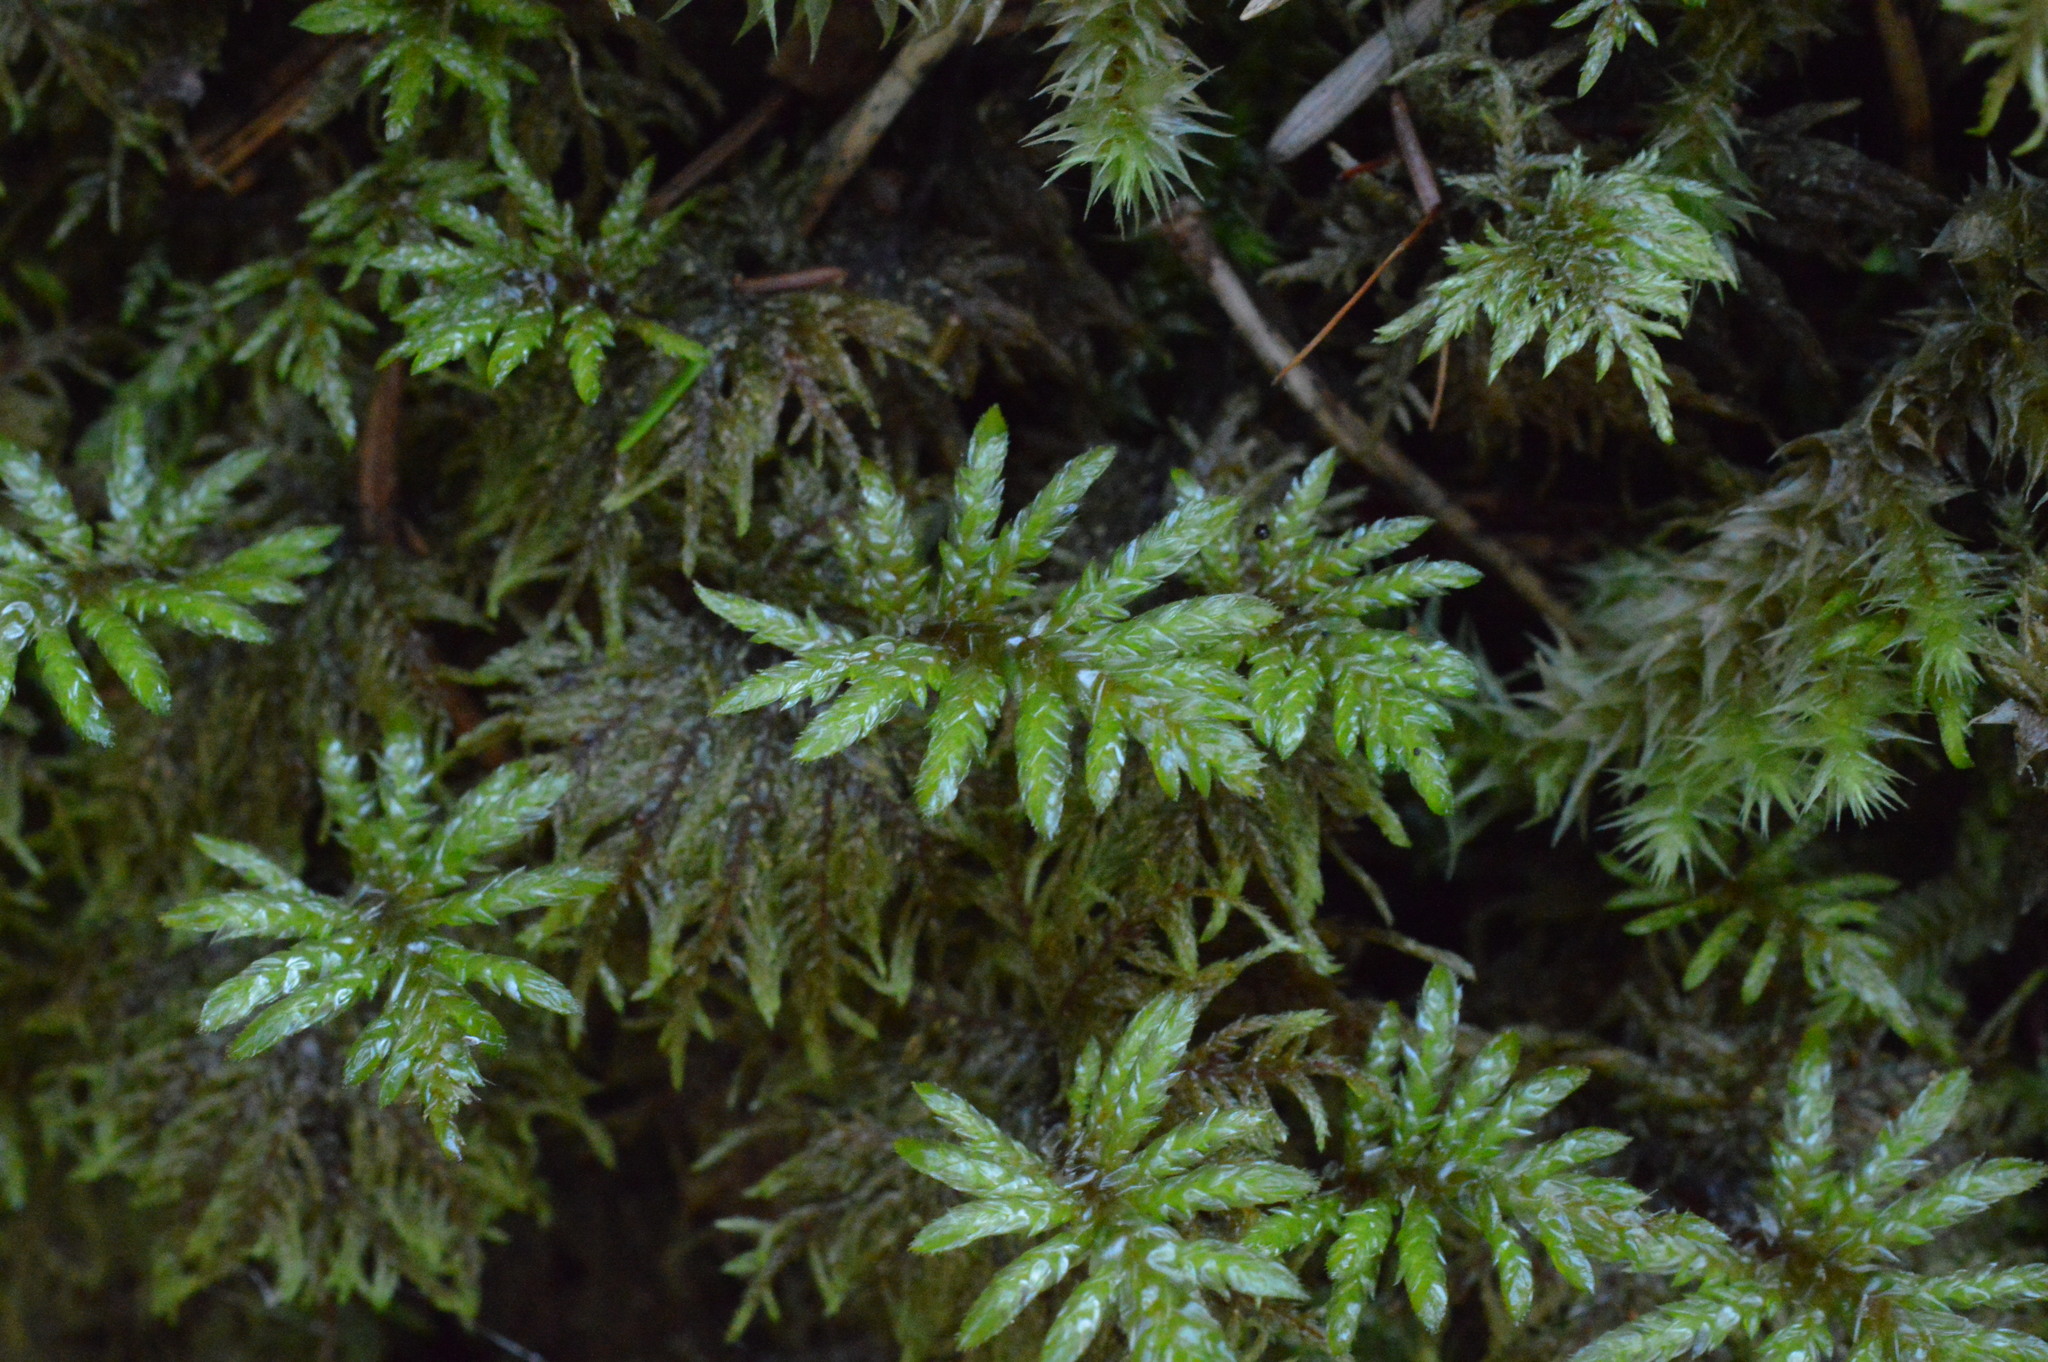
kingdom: Plantae
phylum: Bryophyta
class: Bryopsida
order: Hypnales
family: Hylocomiaceae
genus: Hylocomium
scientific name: Hylocomium splendens
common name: Stairstep moss
